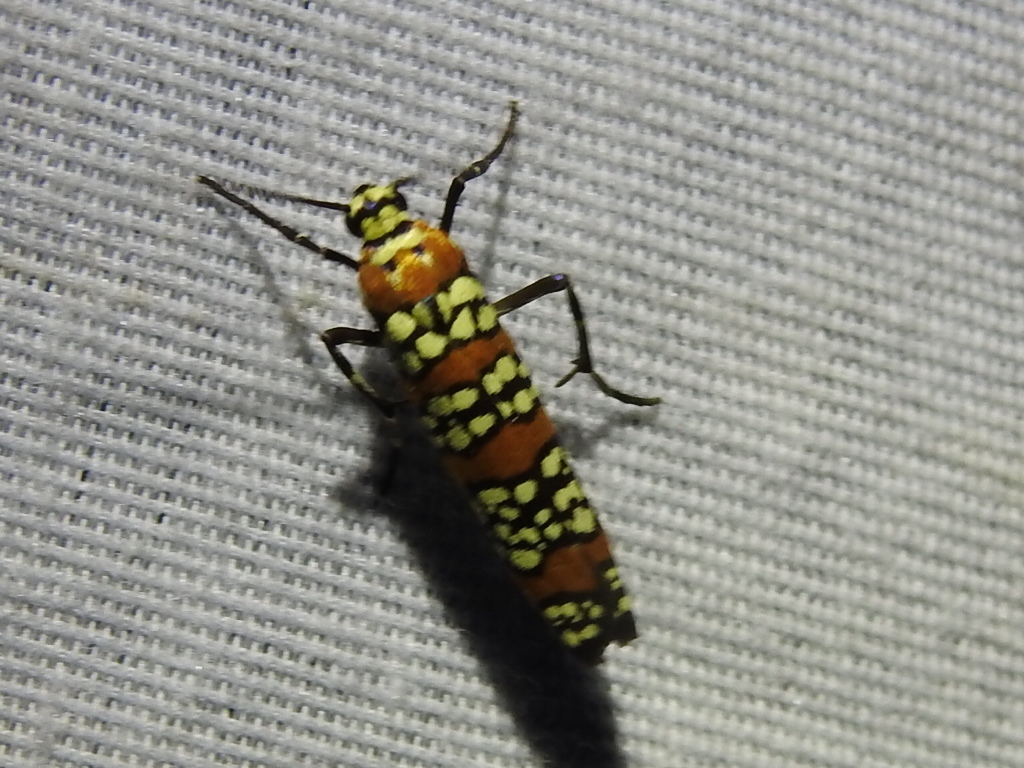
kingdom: Animalia
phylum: Arthropoda
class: Insecta
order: Lepidoptera
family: Attevidae
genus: Atteva
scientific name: Atteva punctella
